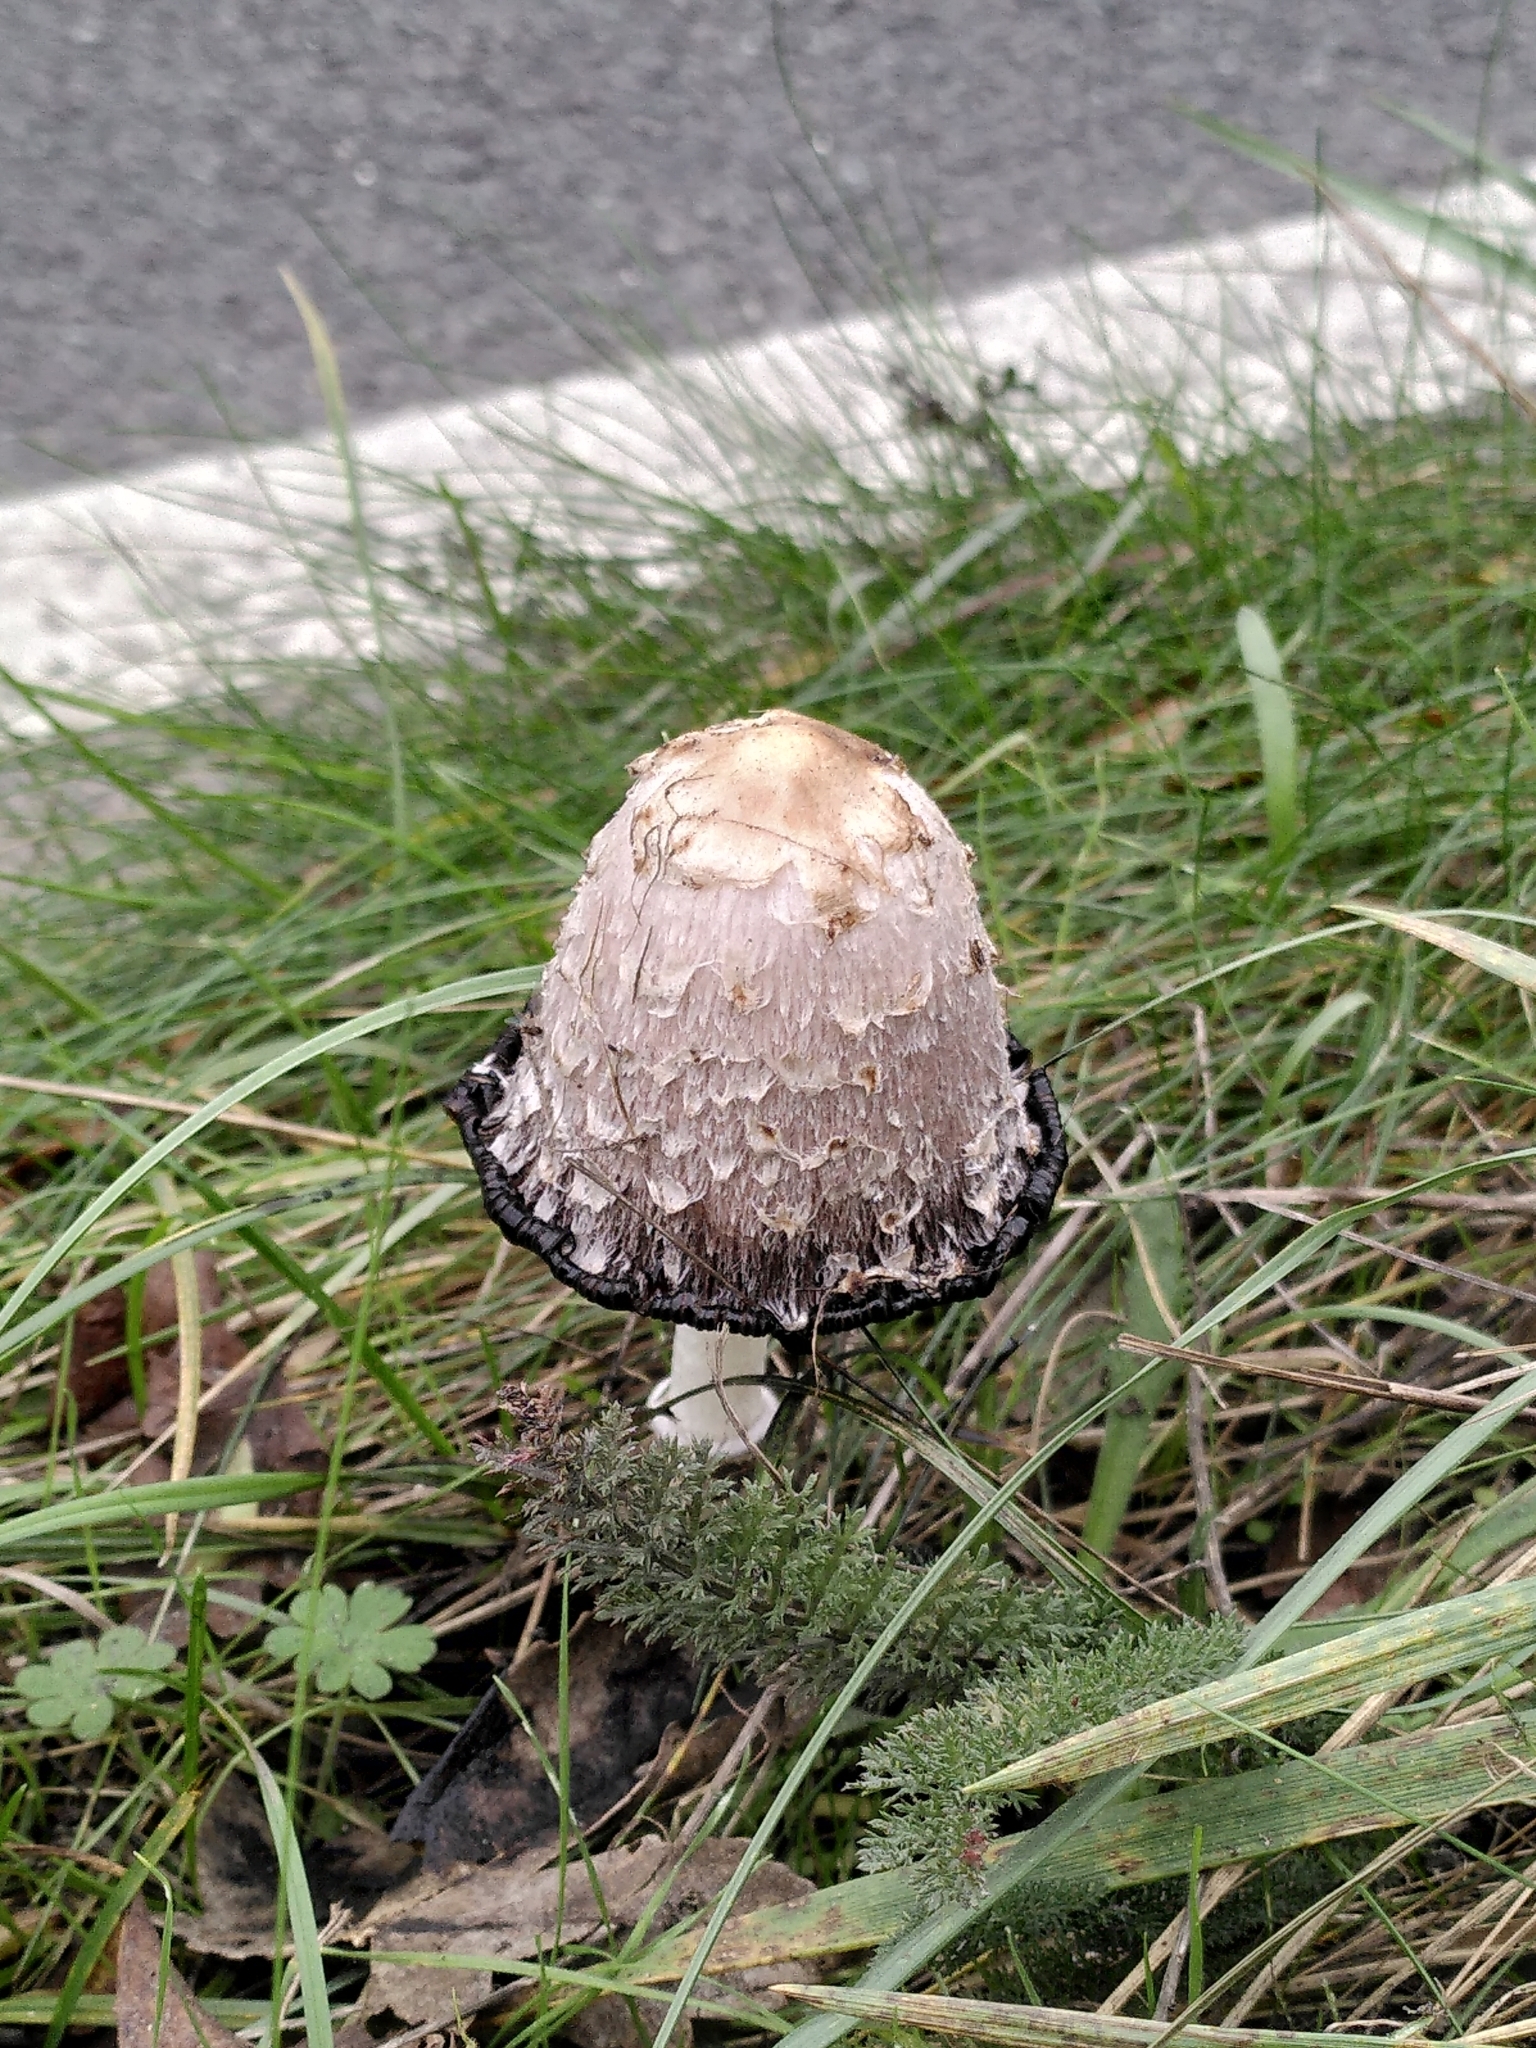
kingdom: Fungi
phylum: Basidiomycota
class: Agaricomycetes
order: Agaricales
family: Agaricaceae
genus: Coprinus
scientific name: Coprinus comatus
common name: Lawyer's wig
